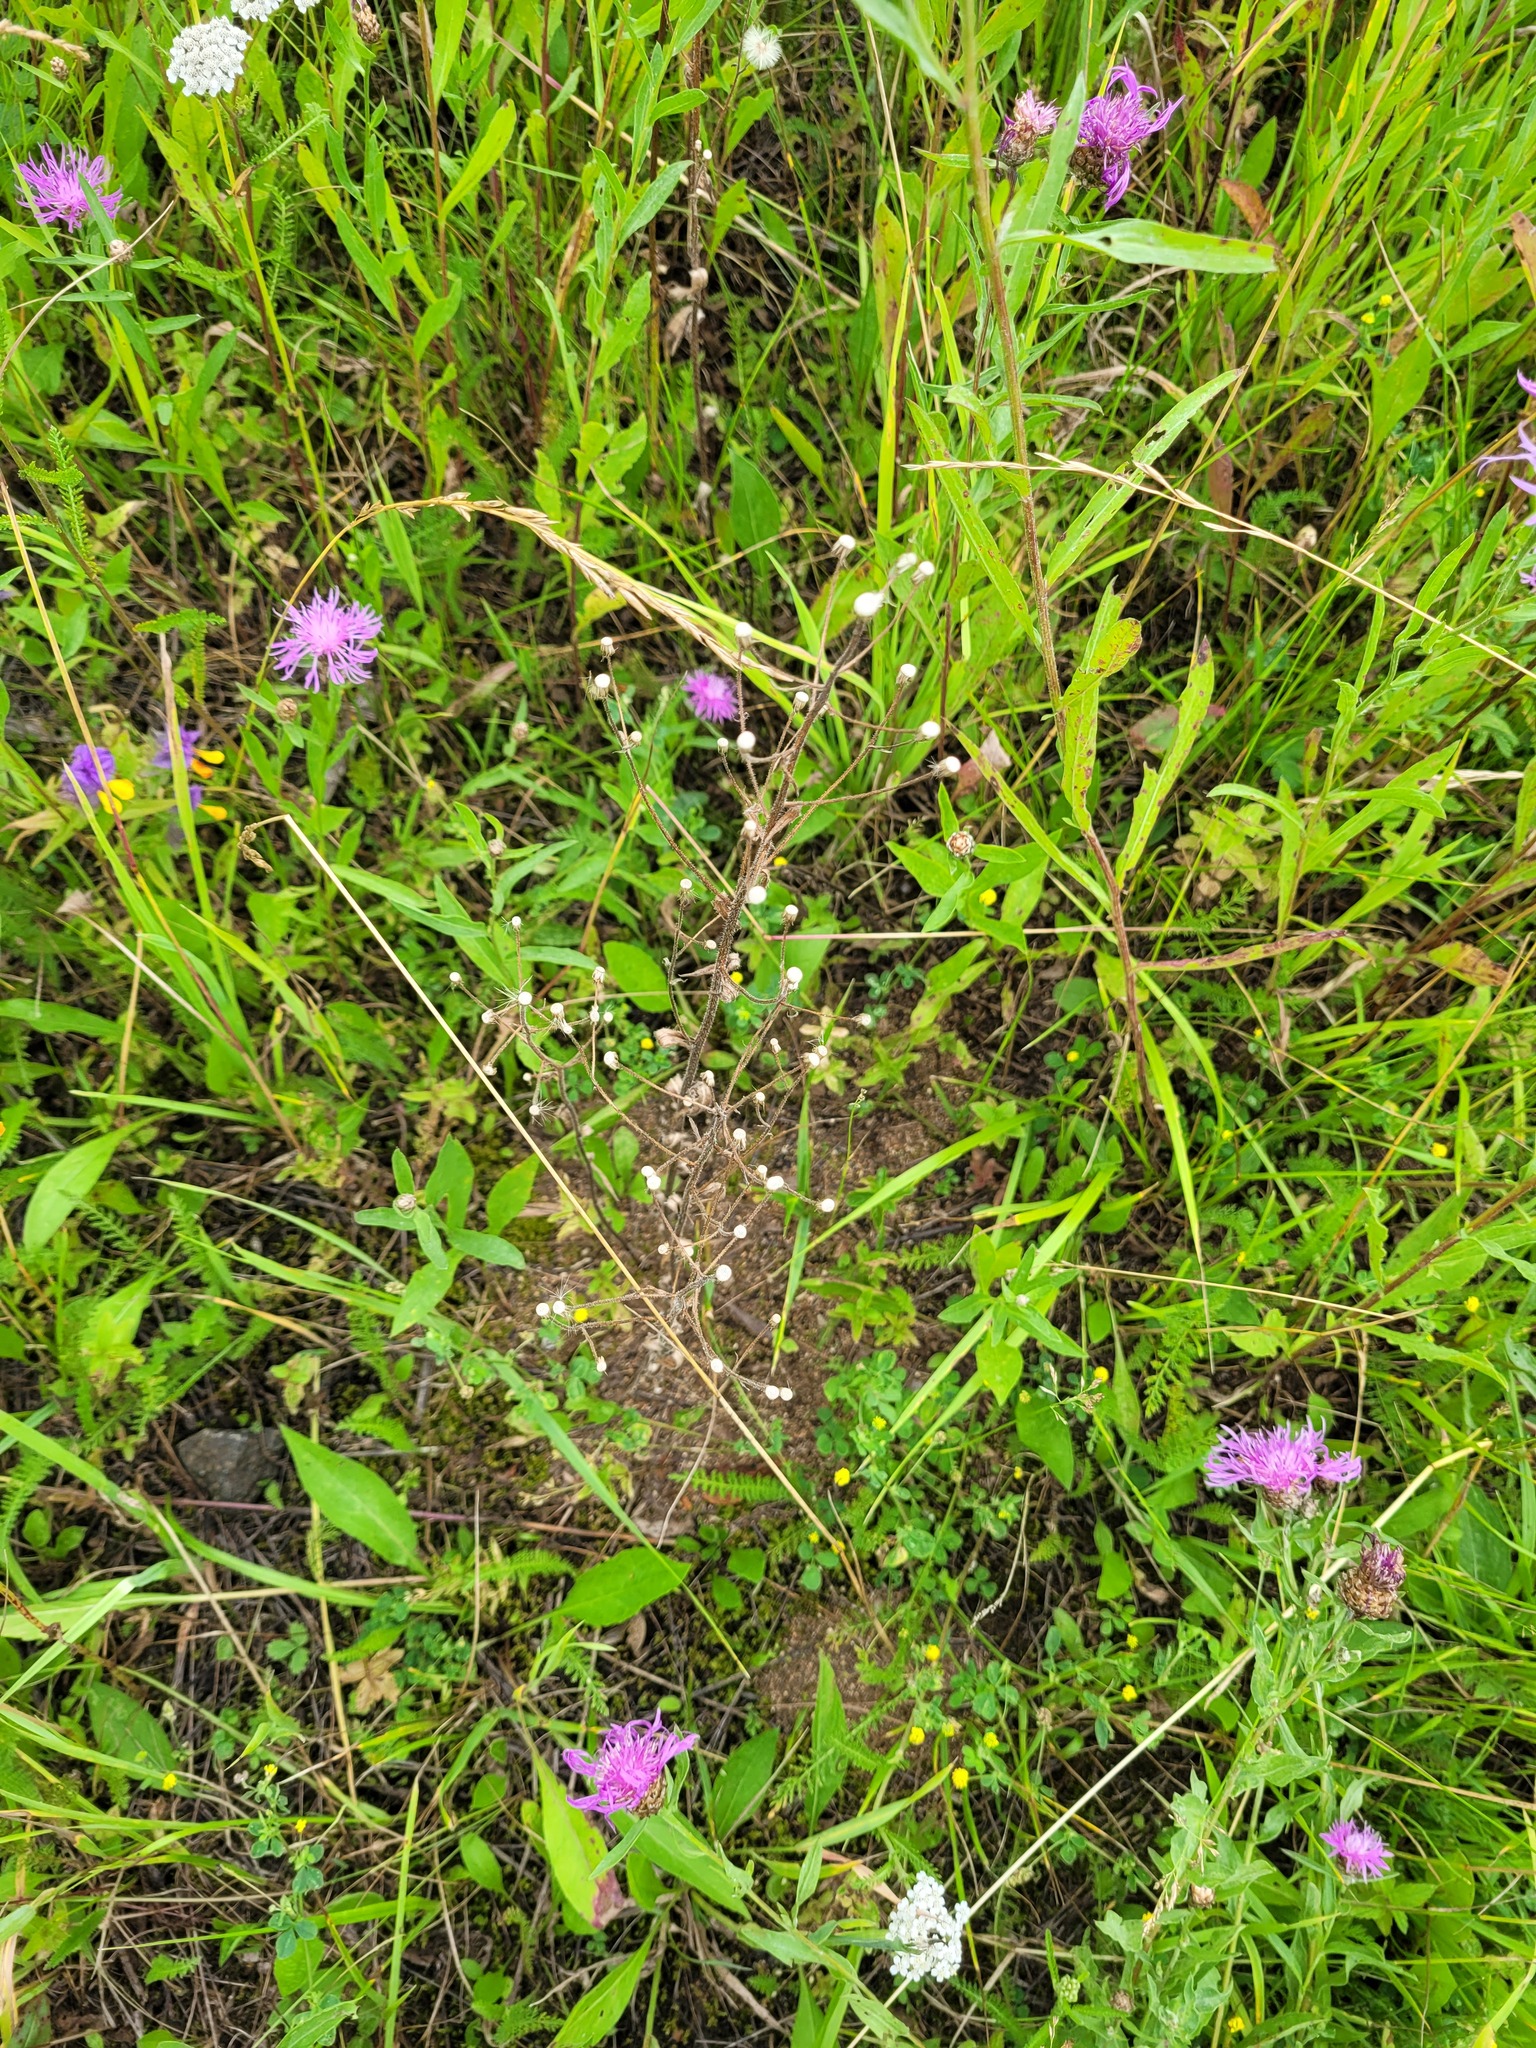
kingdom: Plantae
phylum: Tracheophyta
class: Magnoliopsida
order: Asterales
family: Asteraceae
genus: Erigeron
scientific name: Erigeron acris
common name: Blue fleabane
